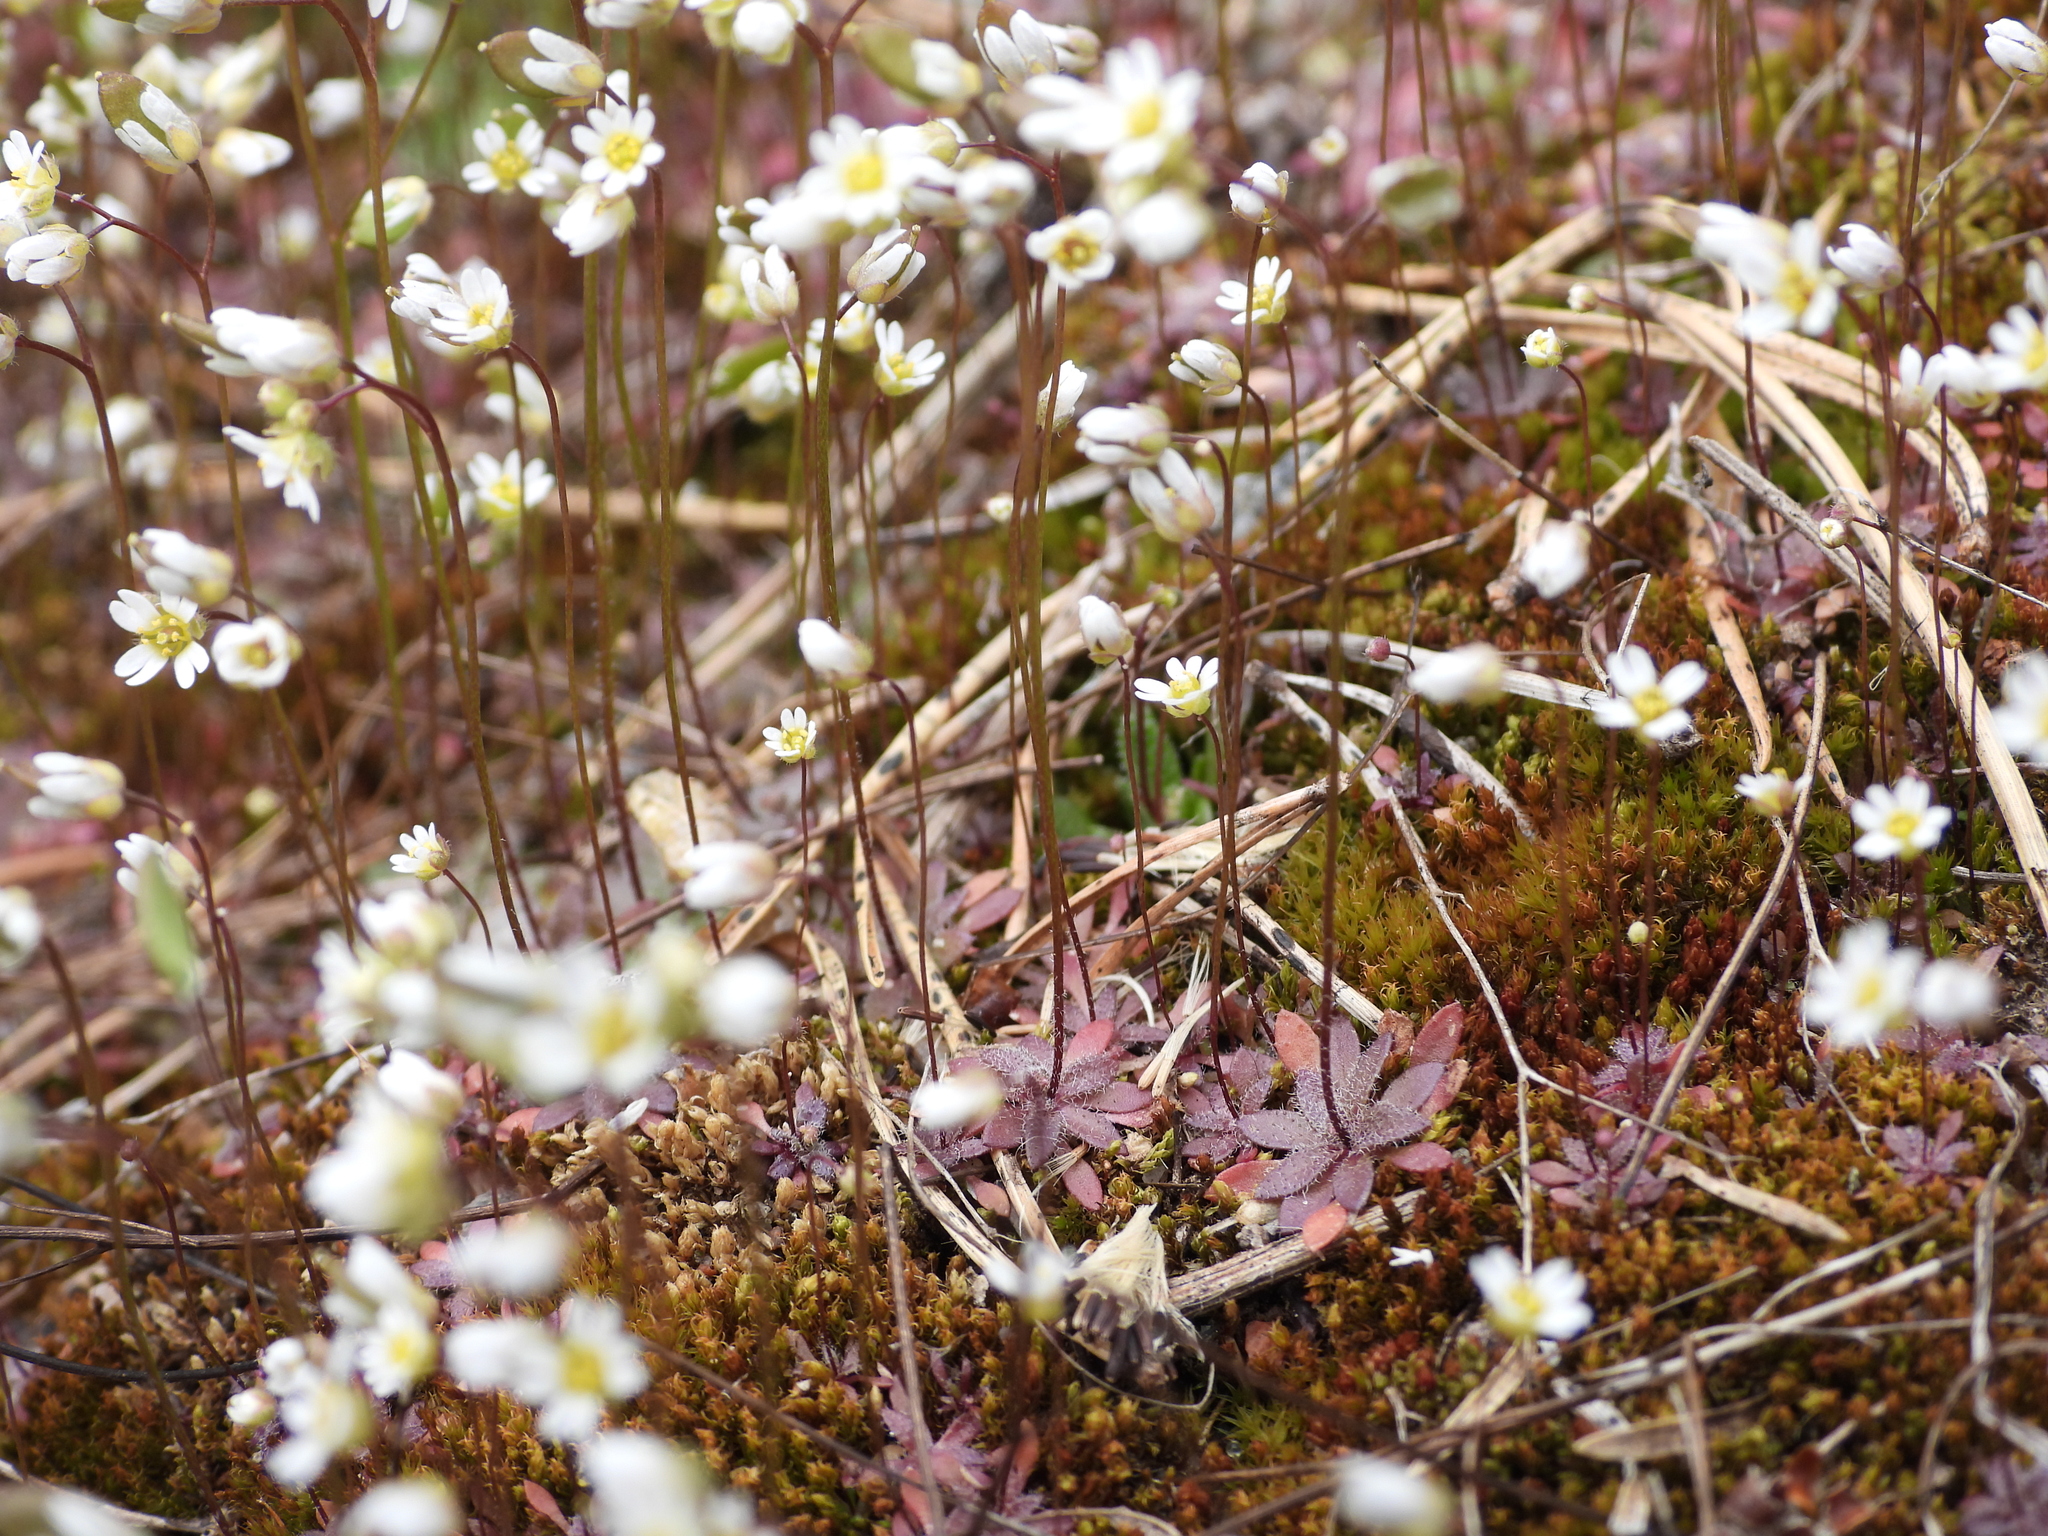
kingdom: Plantae
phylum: Tracheophyta
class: Magnoliopsida
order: Brassicales
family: Brassicaceae
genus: Draba
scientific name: Draba verna
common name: Spring draba
